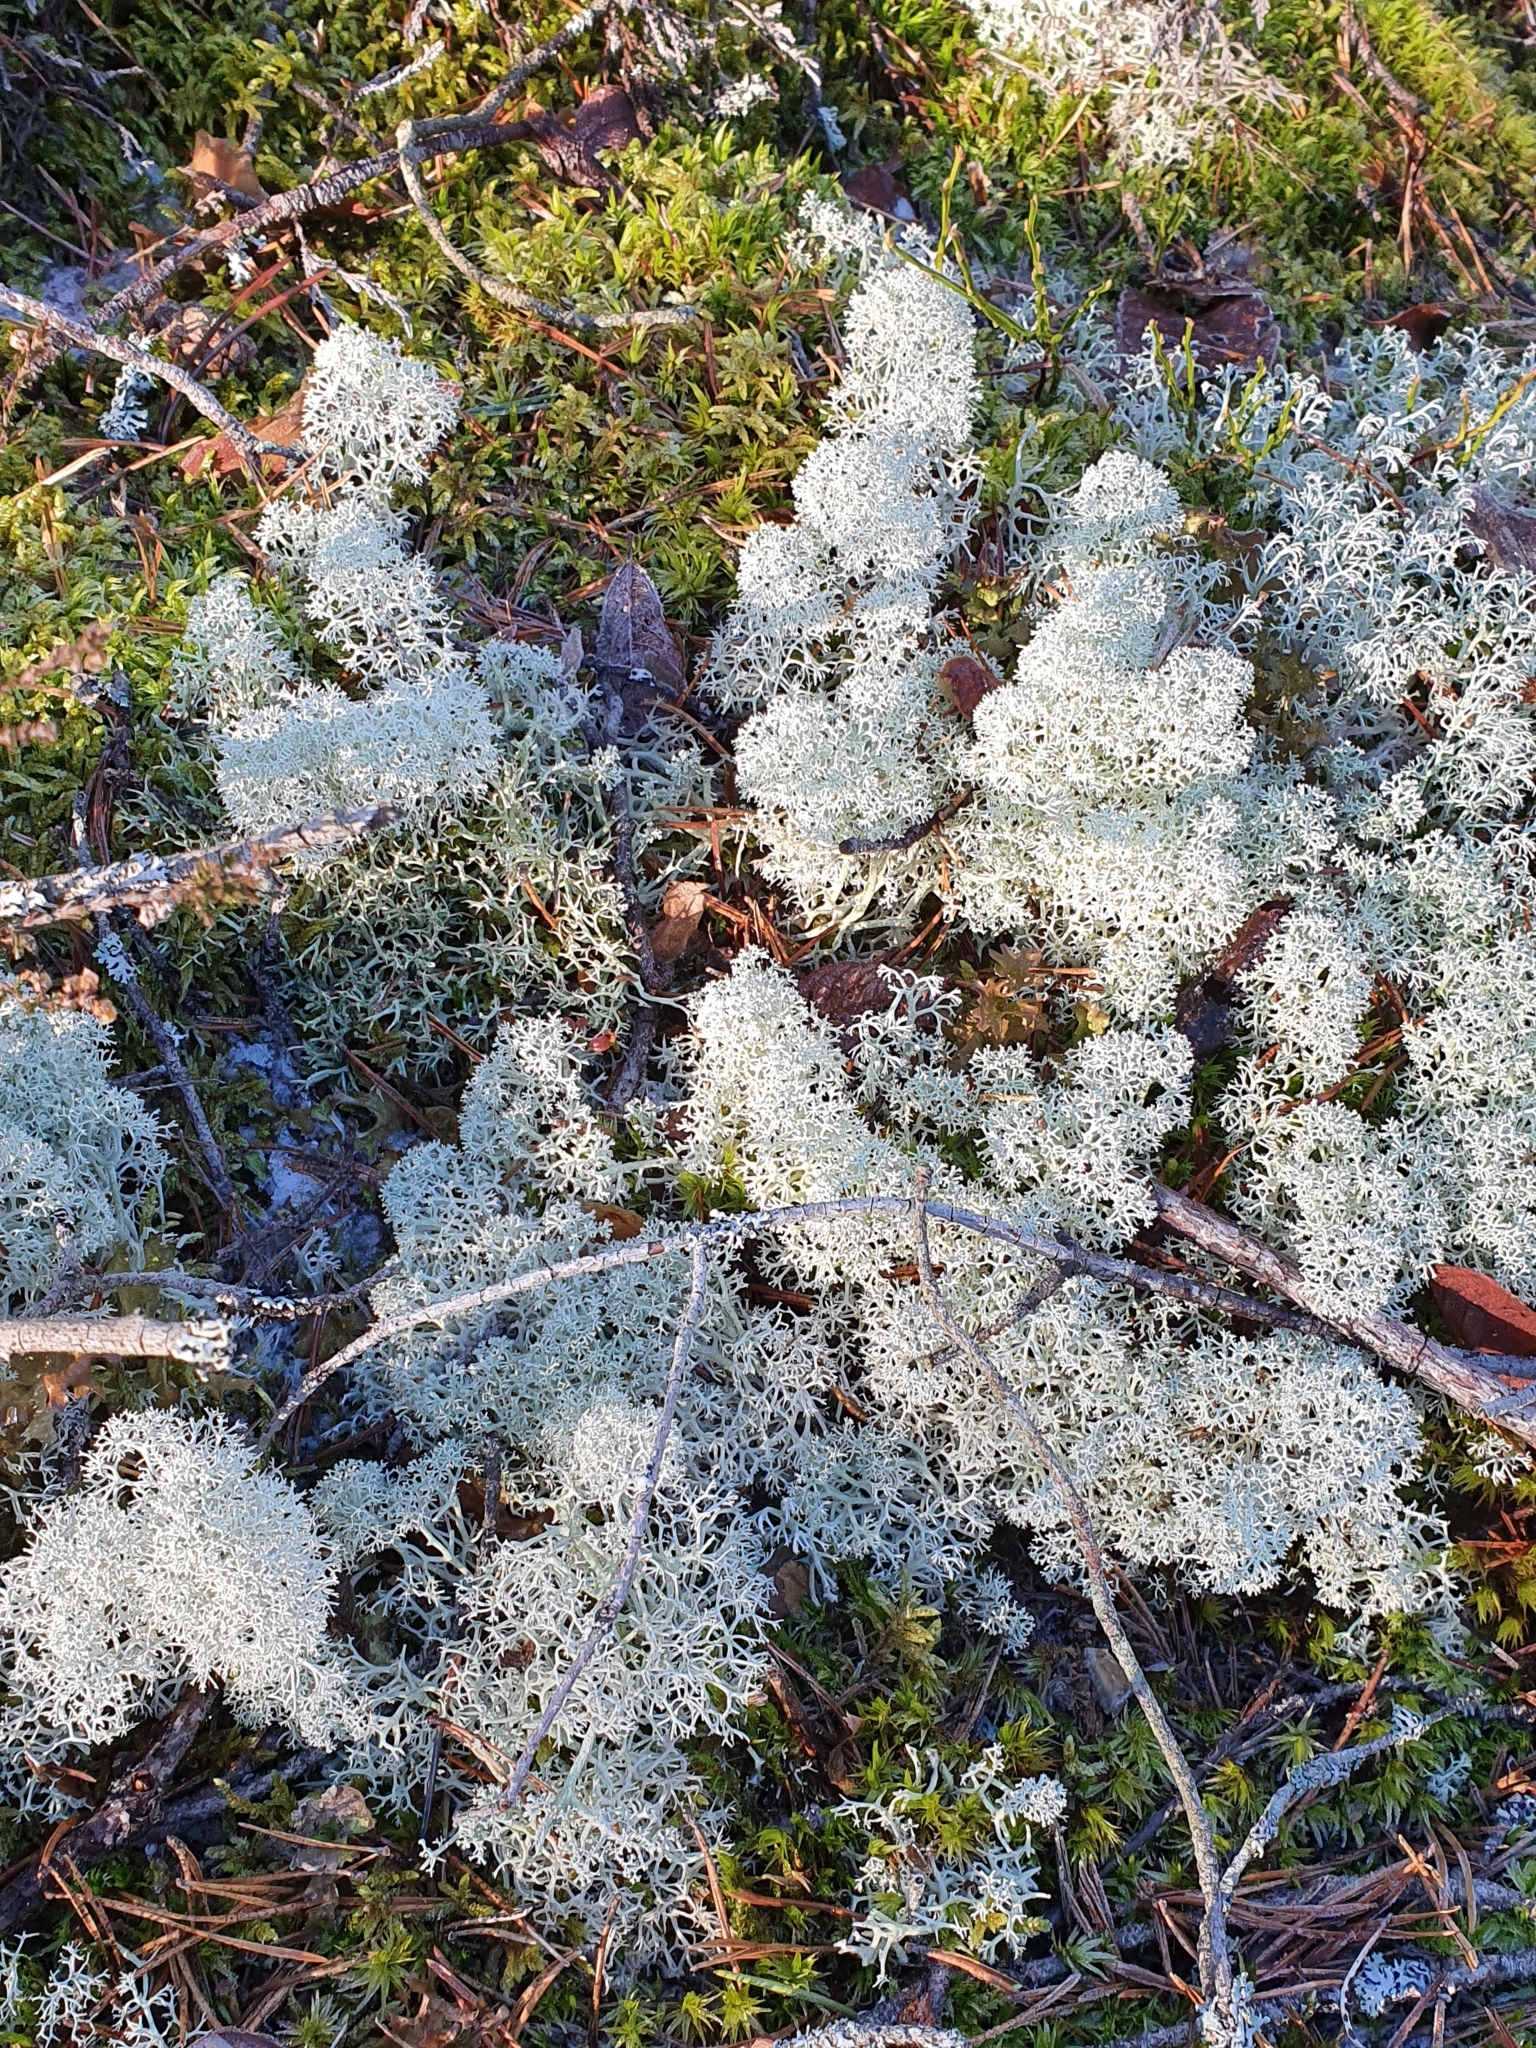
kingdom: Fungi
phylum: Ascomycota
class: Lecanoromycetes
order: Lecanorales
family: Cladoniaceae
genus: Cladonia
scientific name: Cladonia stellaris
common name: Star-tipped reindeer lichen
